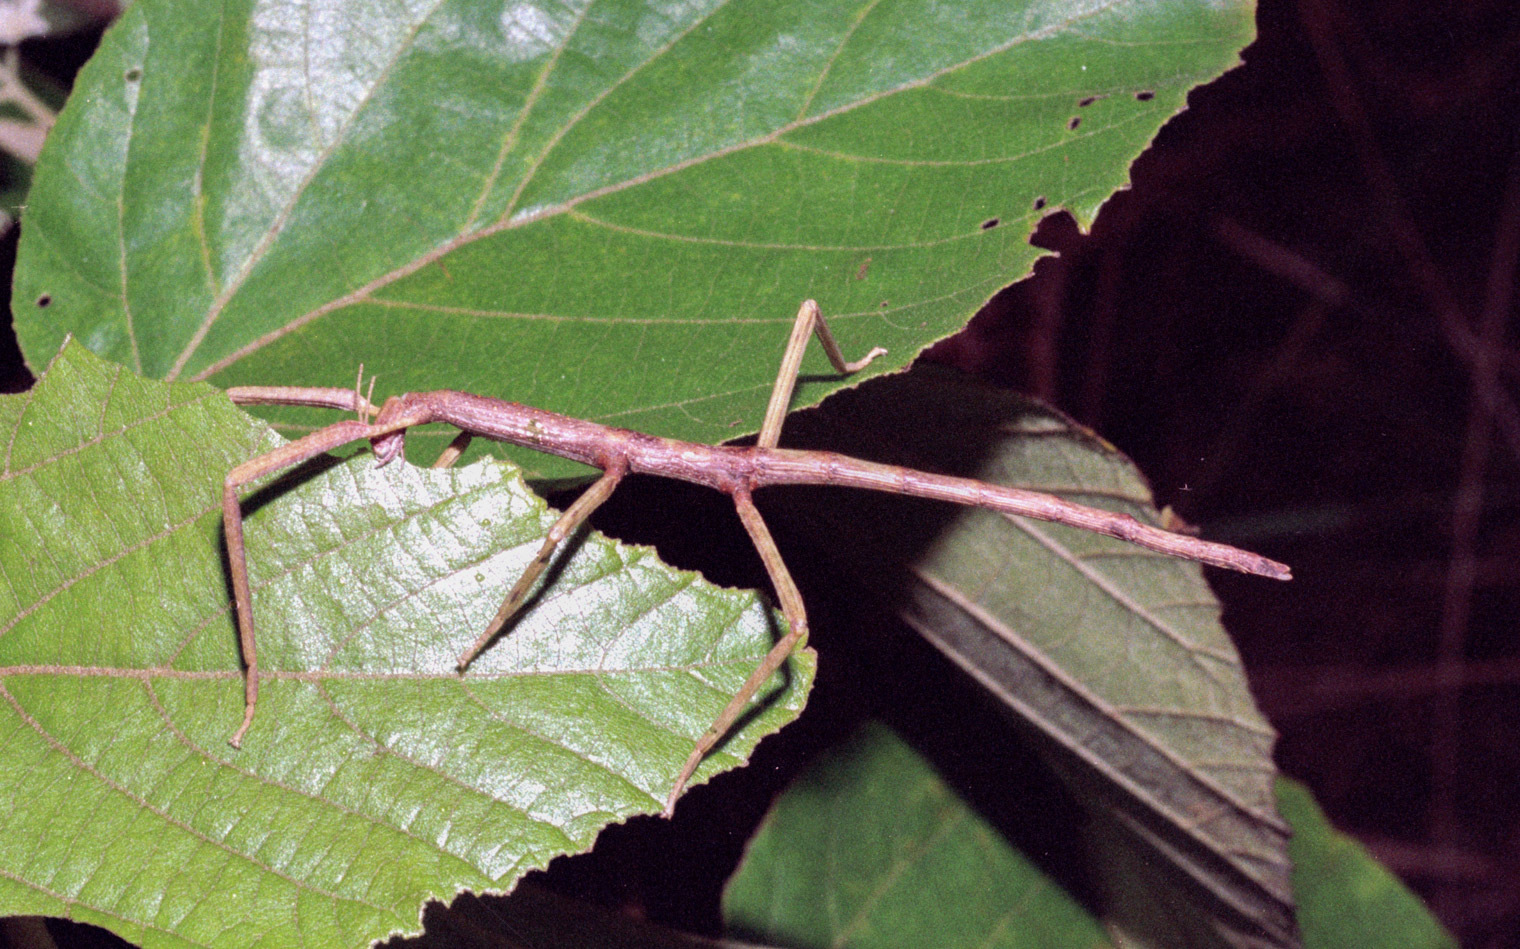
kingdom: Animalia
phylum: Arthropoda
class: Insecta
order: Phasmida
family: Phasmatidae
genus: Acrophylla
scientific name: Acrophylla caprella
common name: Lobe-legged stick-insect
